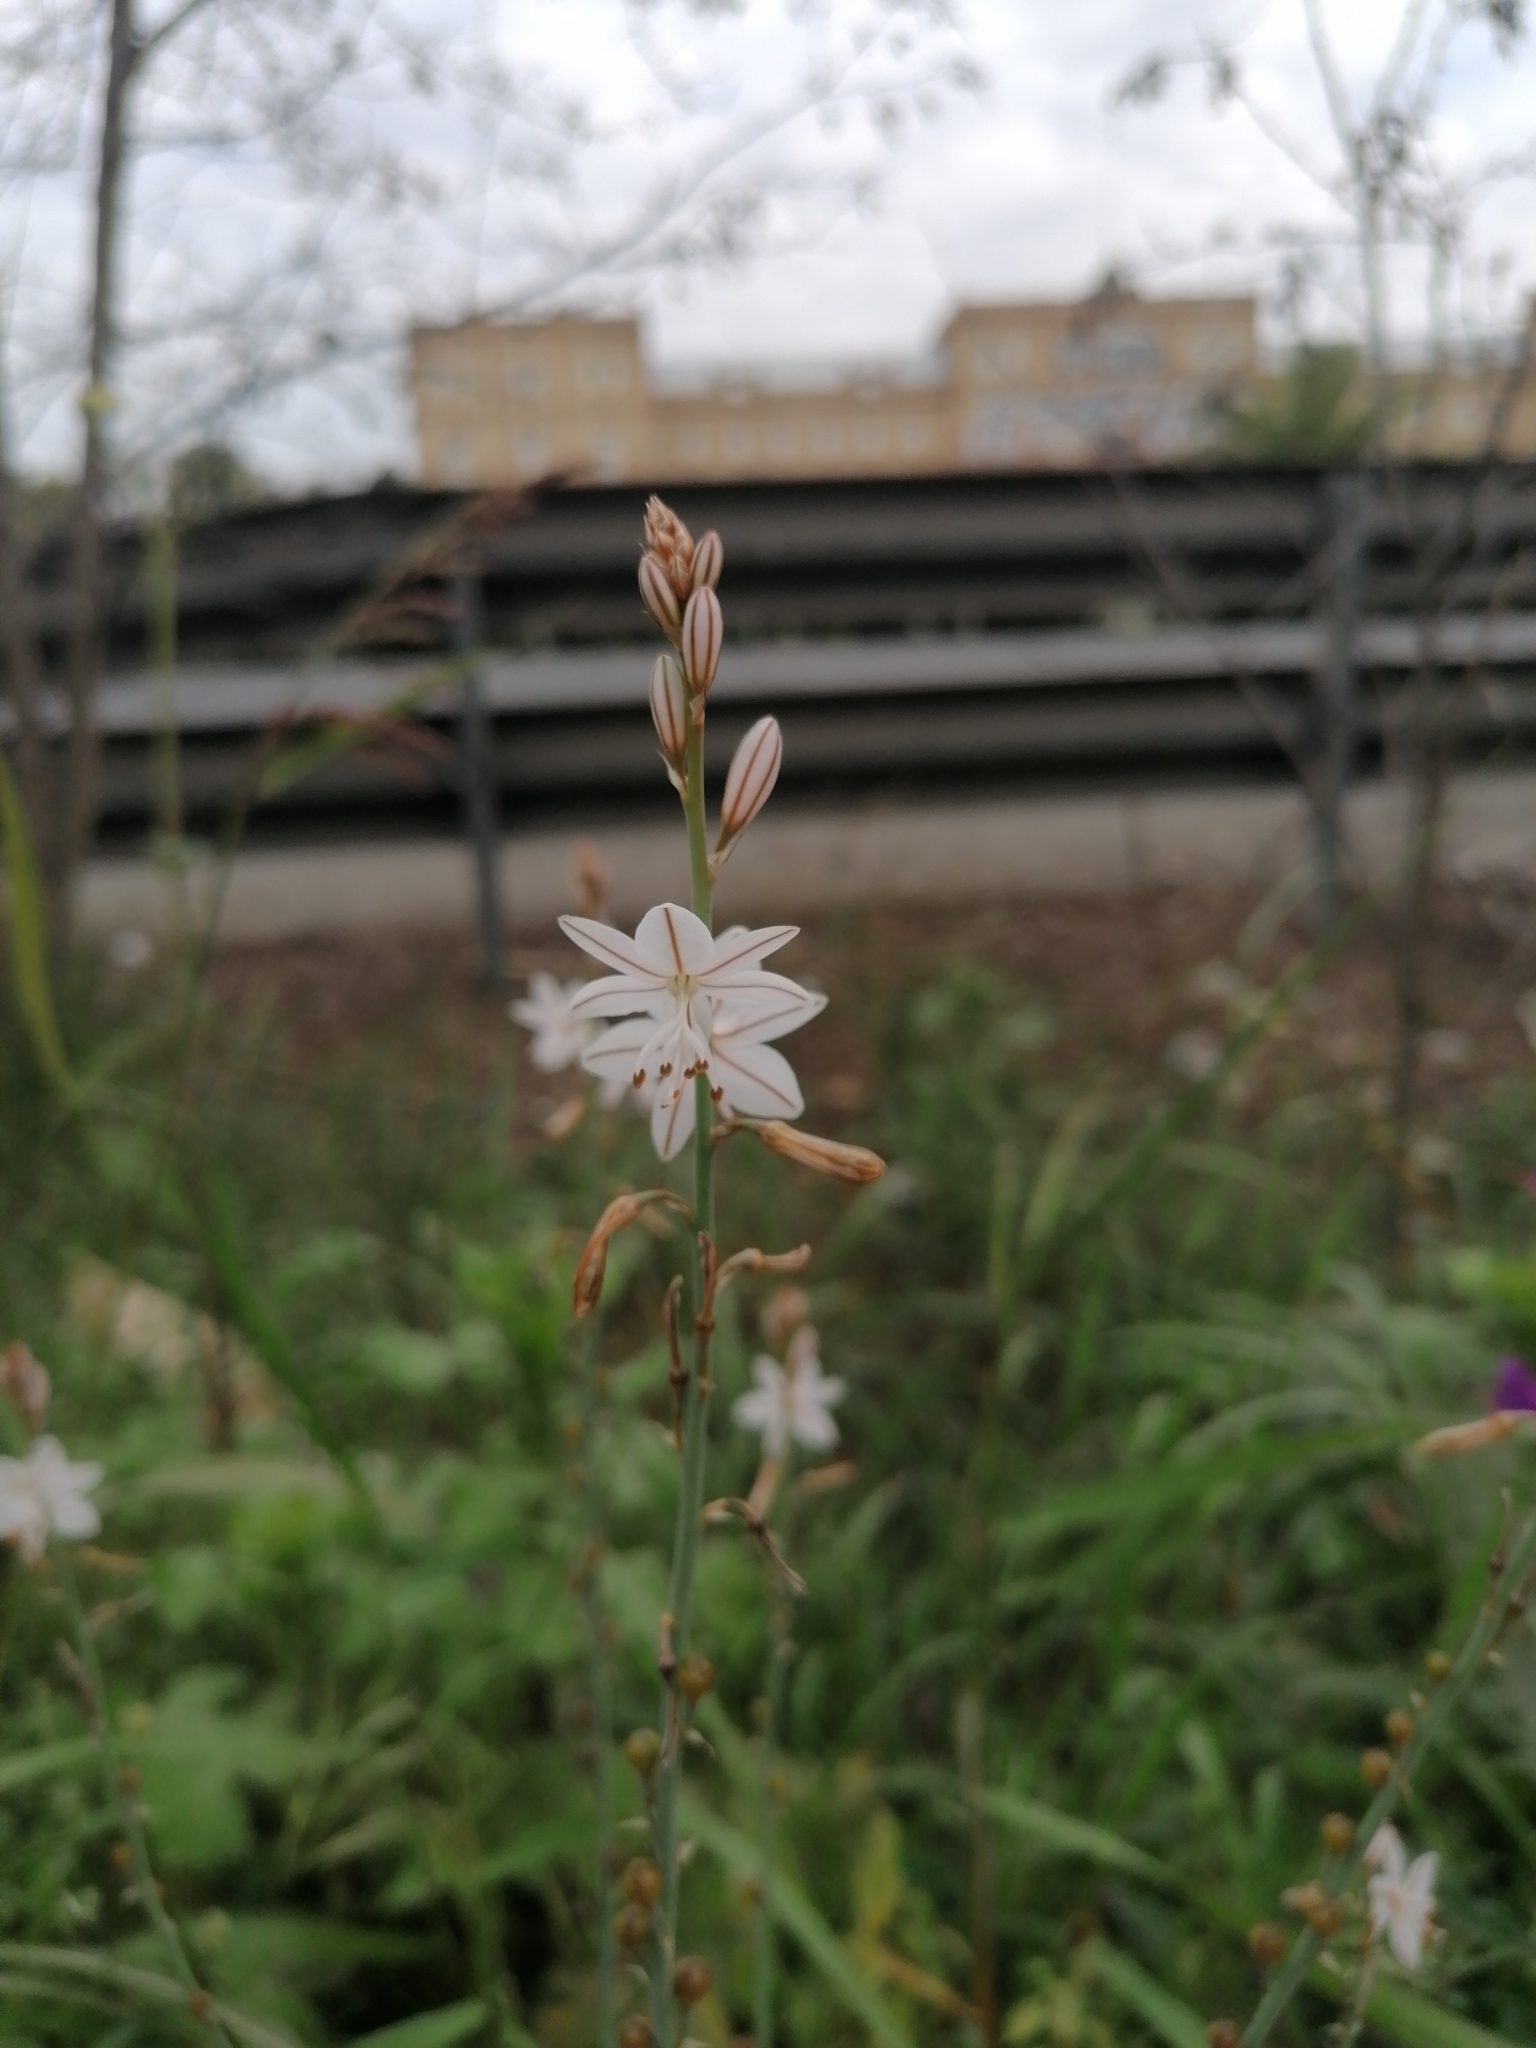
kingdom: Plantae
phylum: Tracheophyta
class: Liliopsida
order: Asparagales
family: Asphodelaceae
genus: Asphodelus
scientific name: Asphodelus fistulosus
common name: Onionweed
